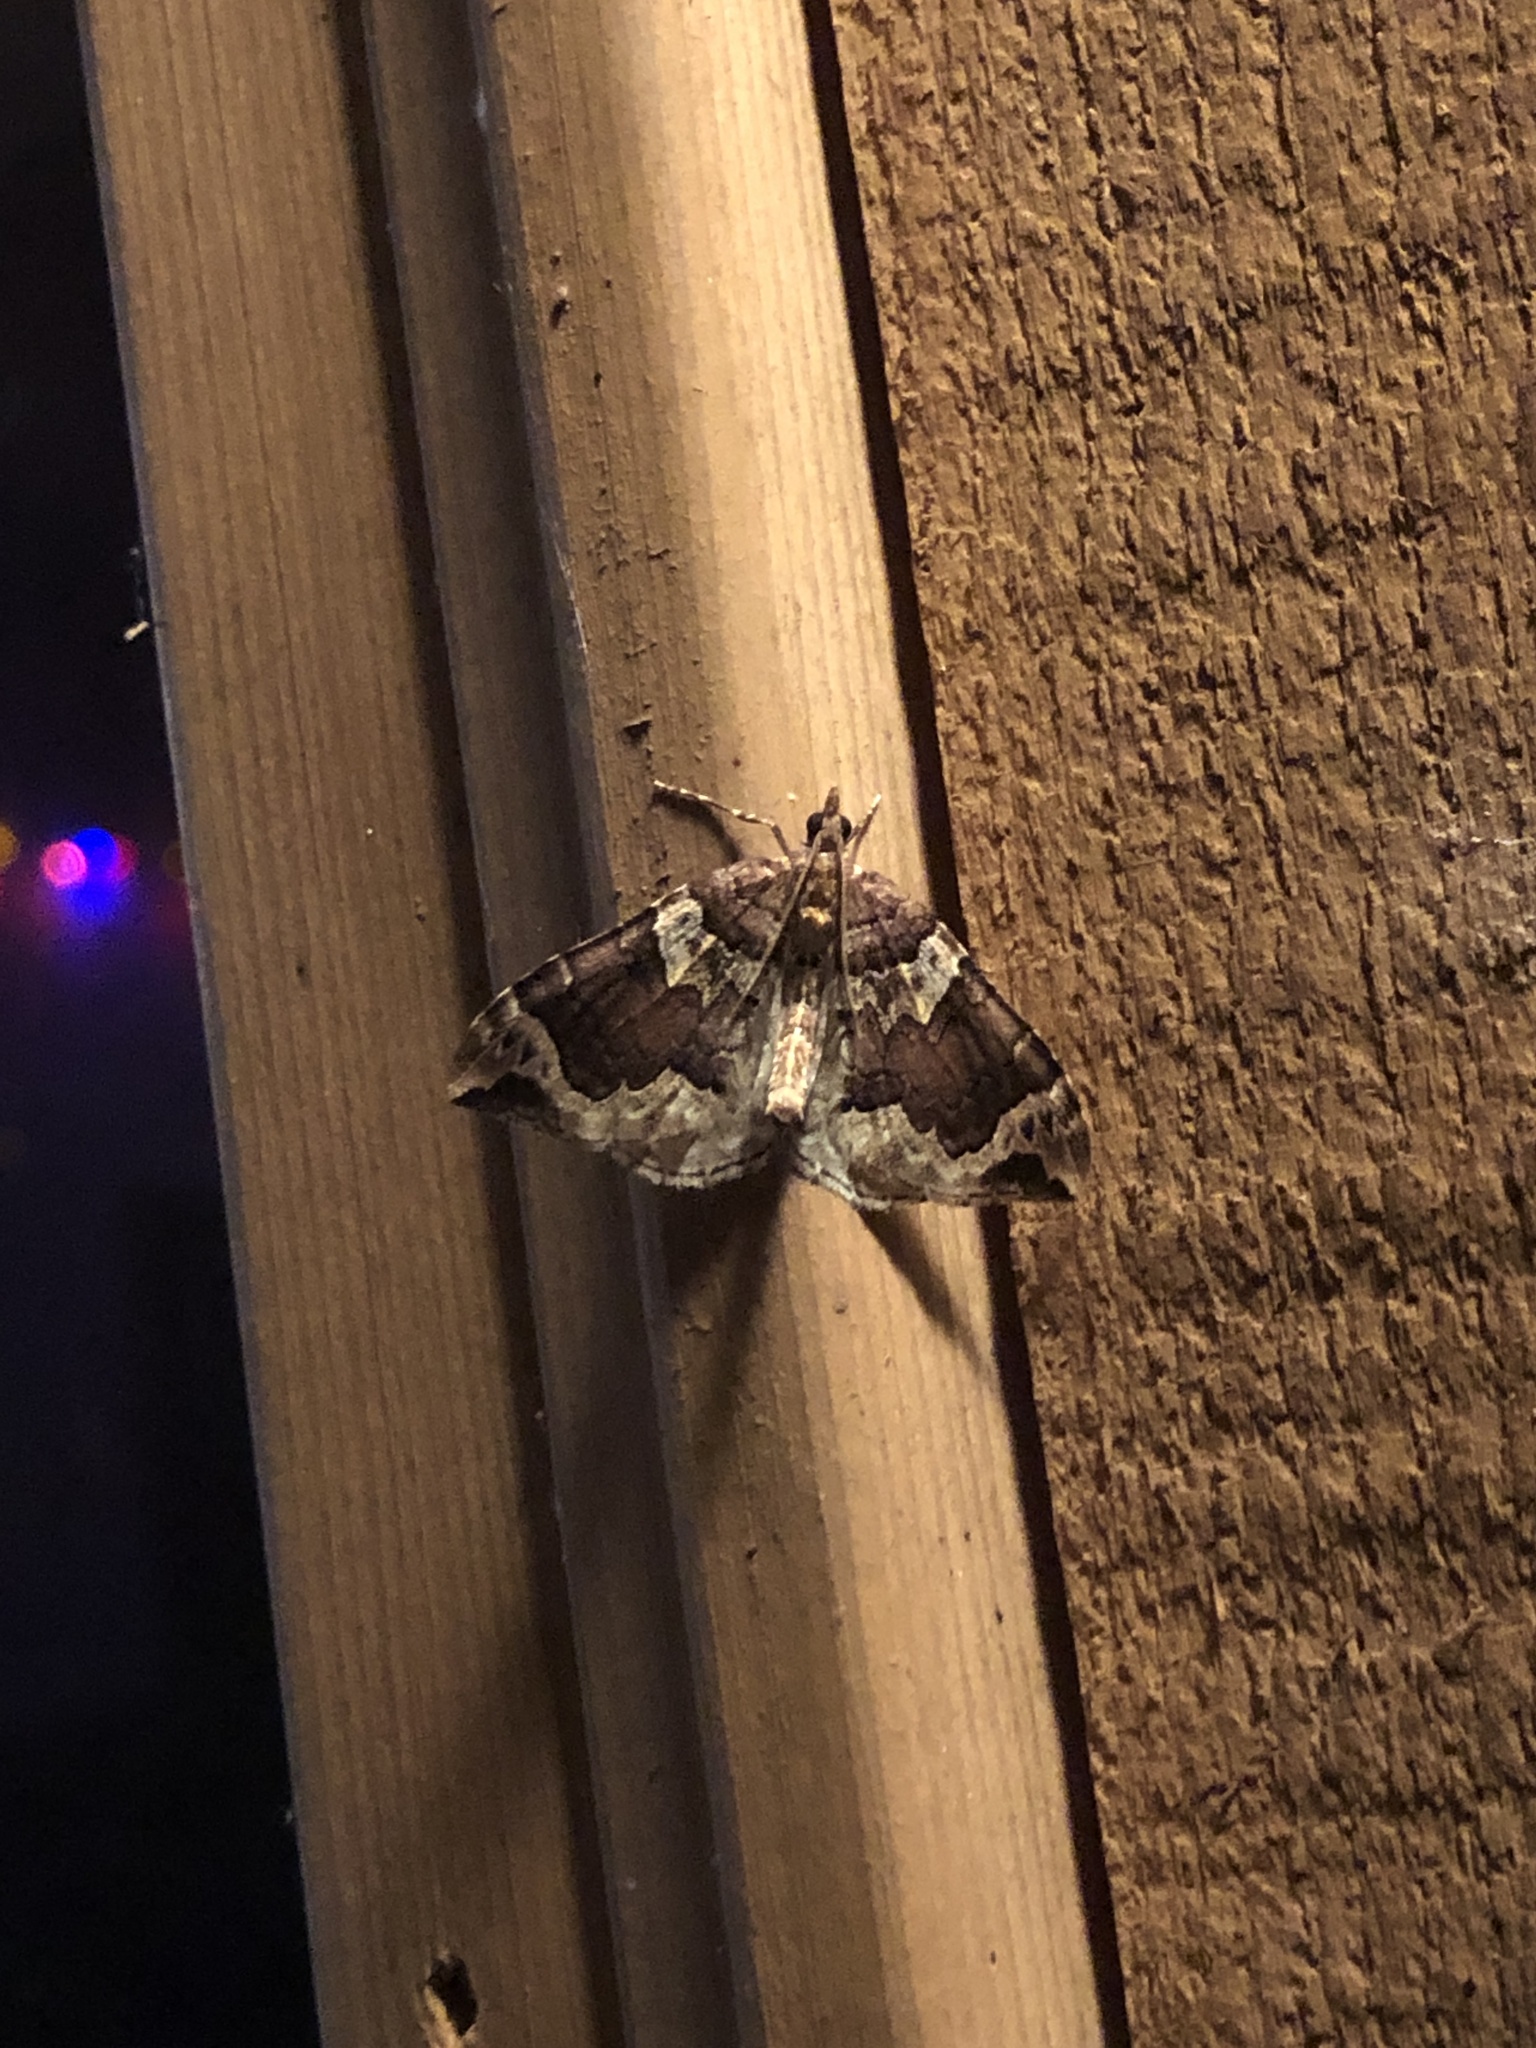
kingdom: Animalia
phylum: Arthropoda
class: Insecta
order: Lepidoptera
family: Geometridae
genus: Eulithis
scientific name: Eulithis xylina
